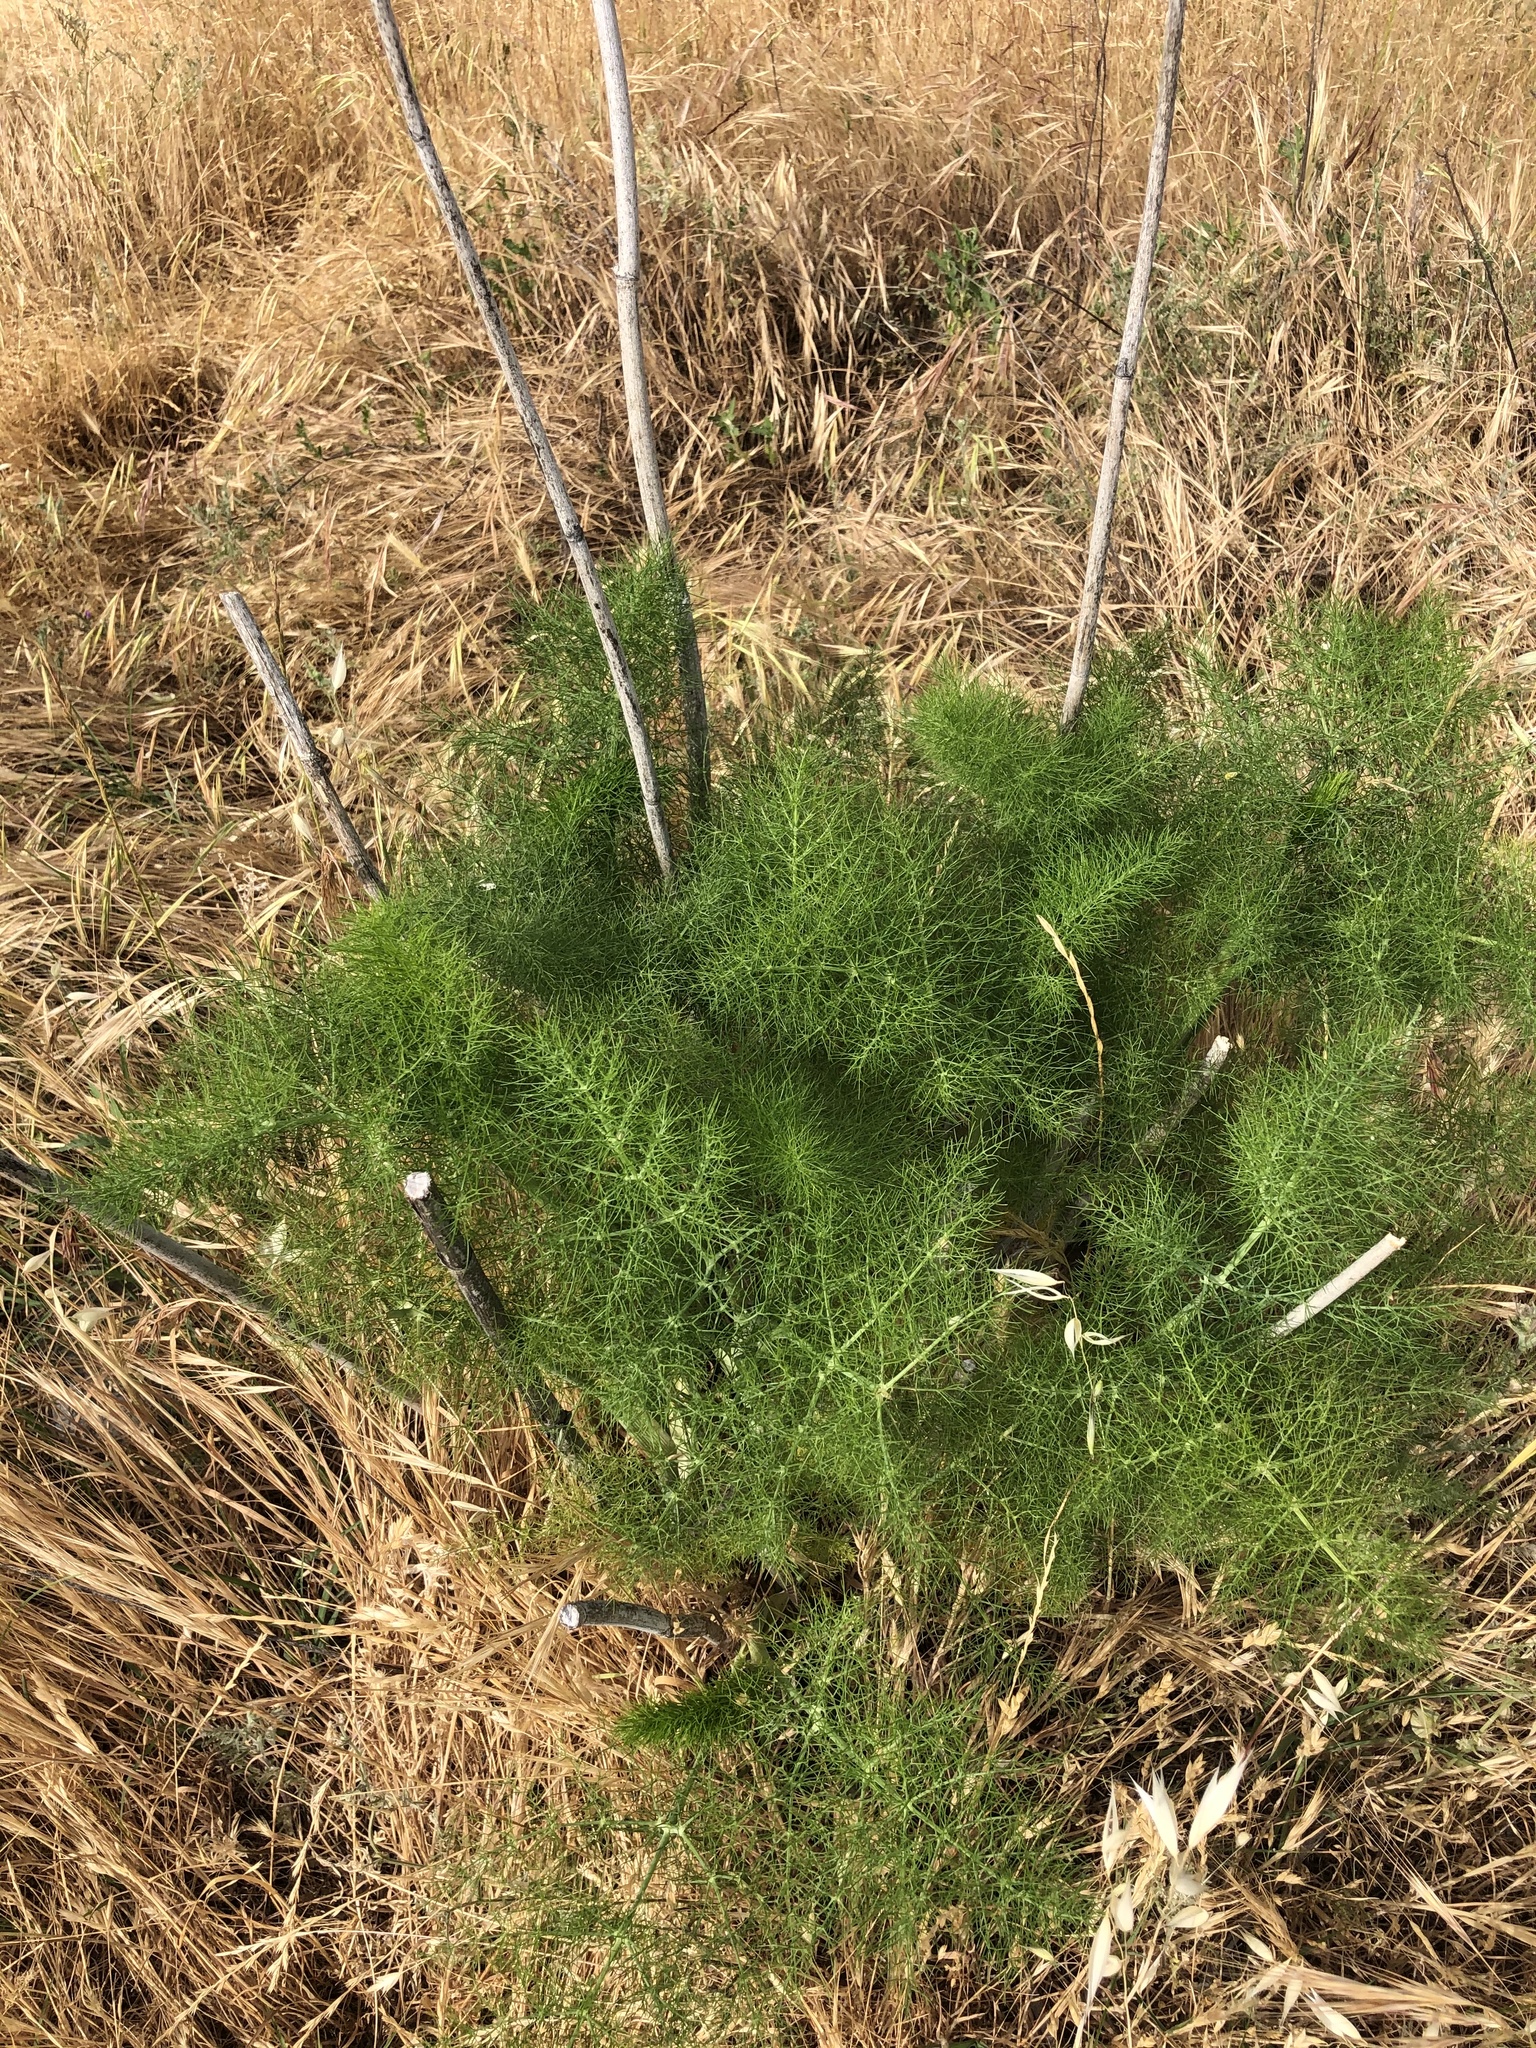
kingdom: Plantae
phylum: Tracheophyta
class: Magnoliopsida
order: Apiales
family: Apiaceae
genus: Foeniculum
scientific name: Foeniculum vulgare
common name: Fennel
